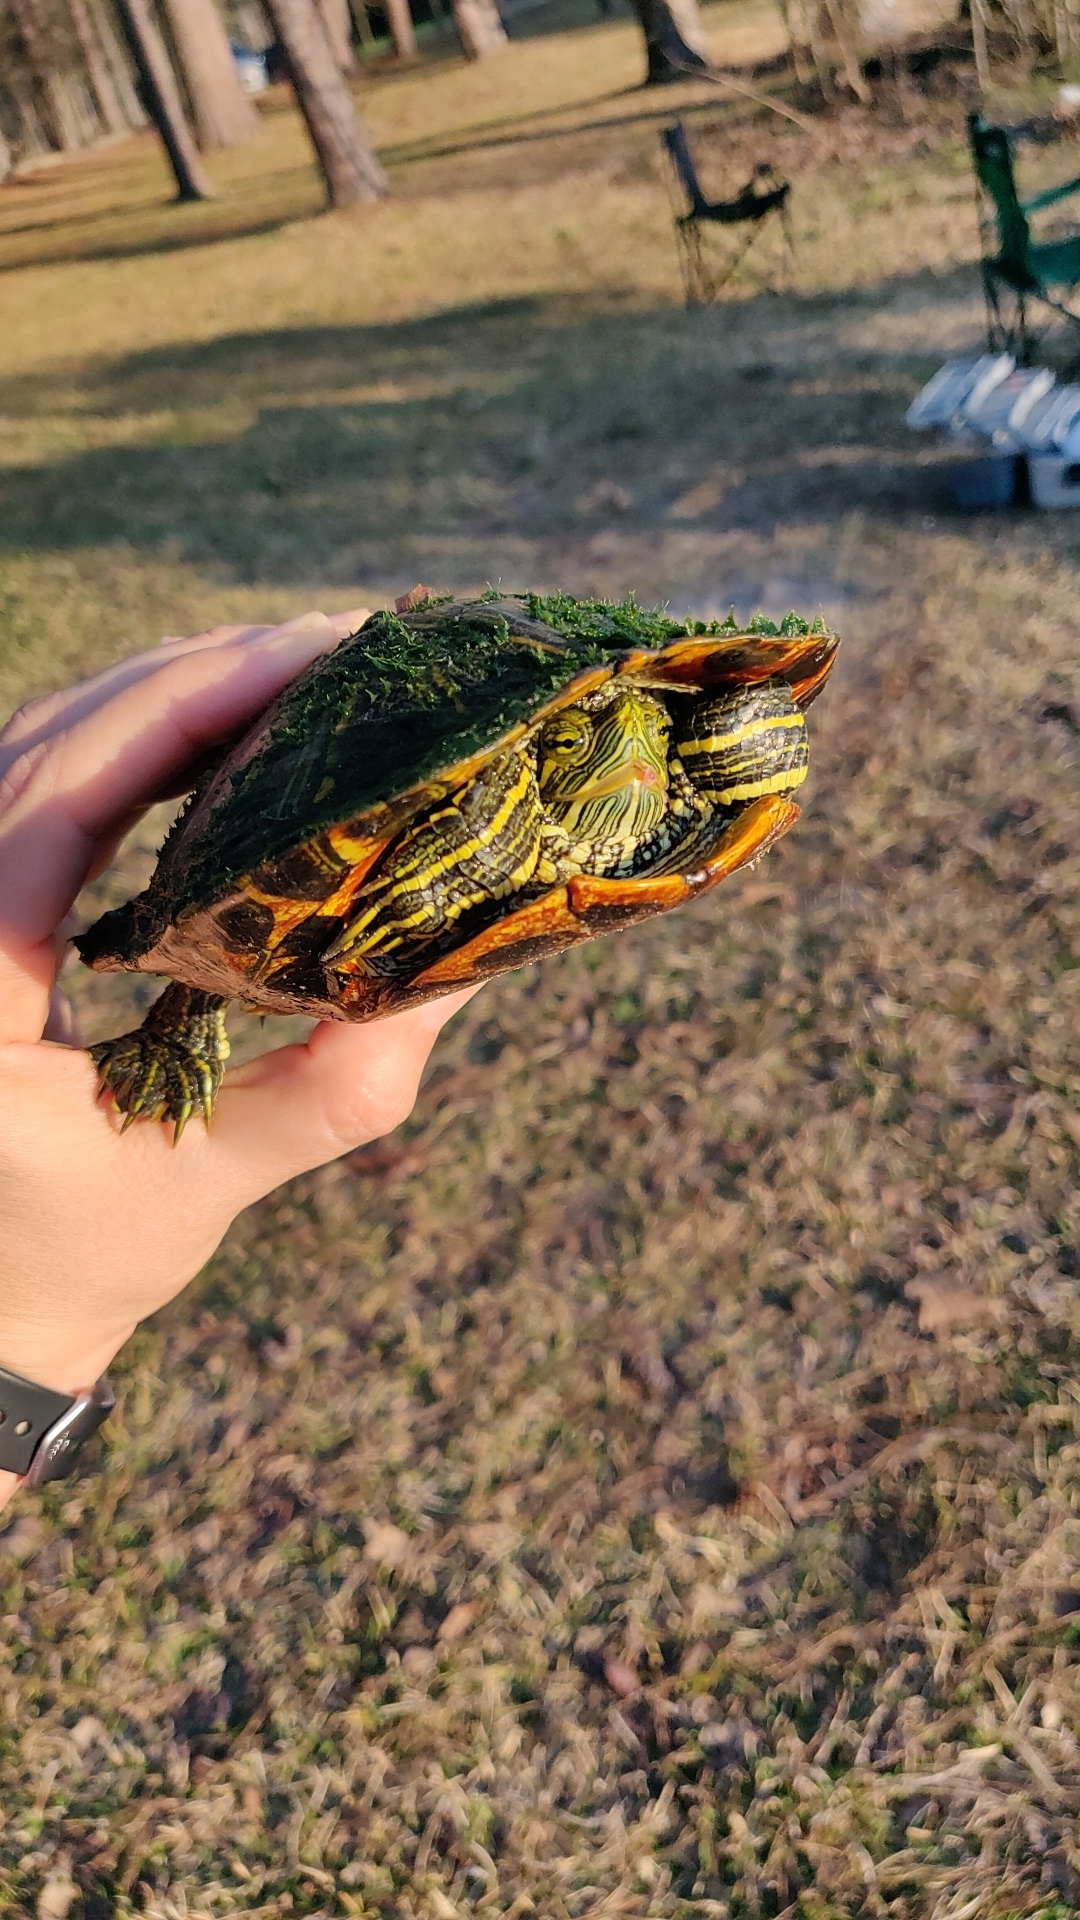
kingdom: Animalia
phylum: Chordata
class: Testudines
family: Emydidae
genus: Trachemys
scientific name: Trachemys scripta
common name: Slider
